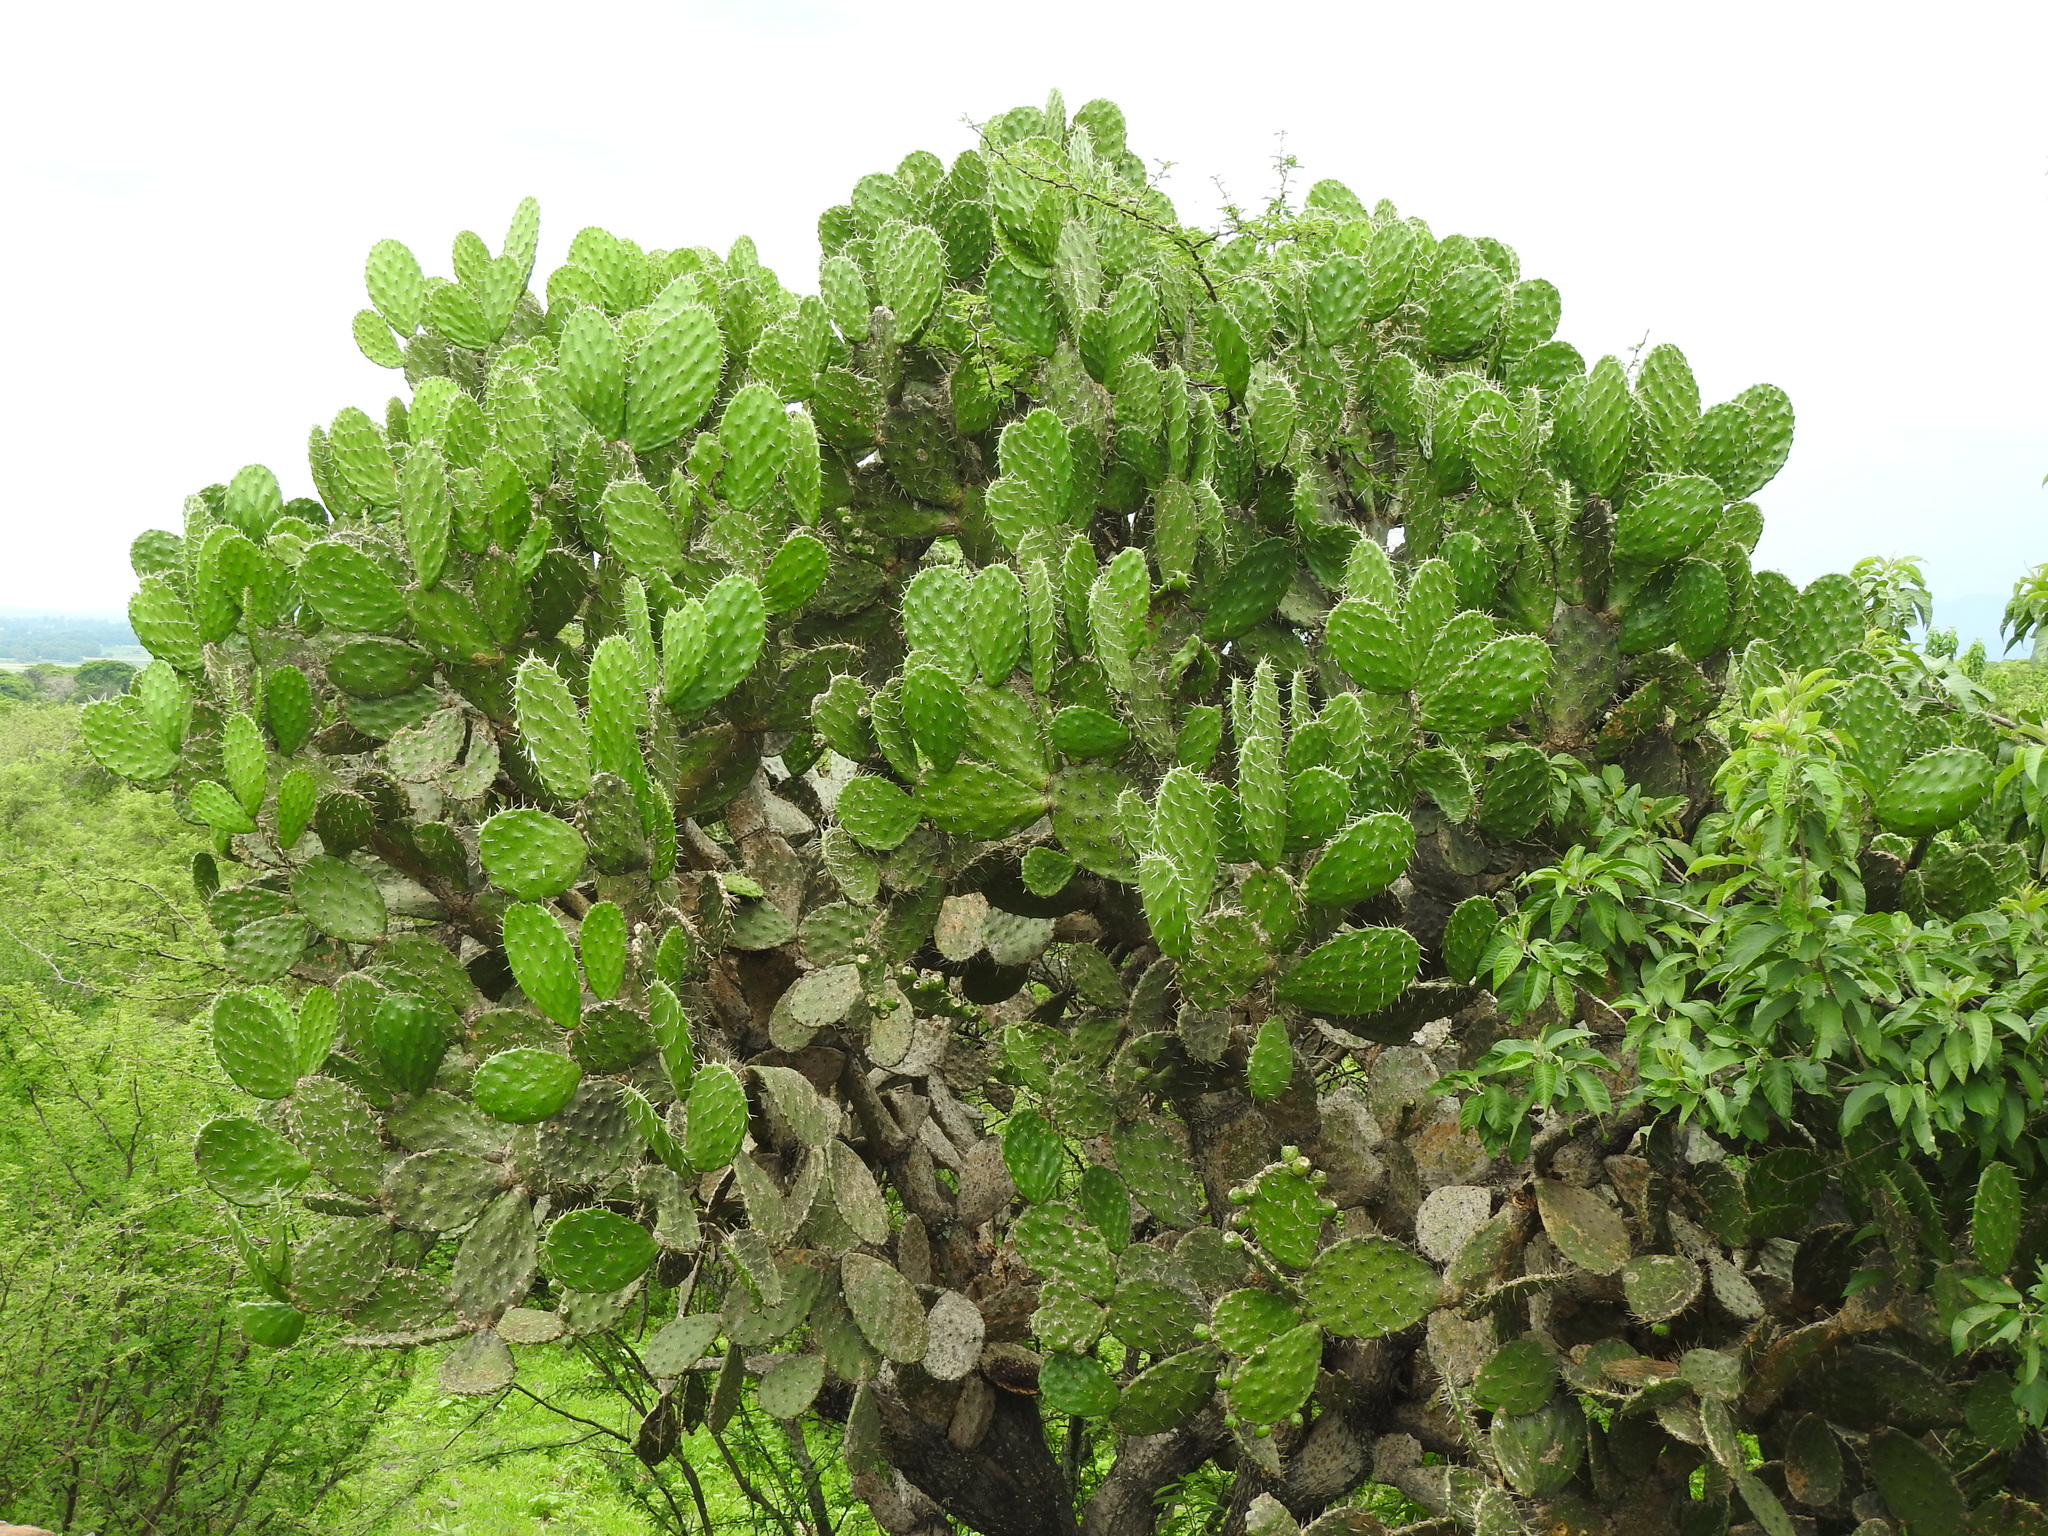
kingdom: Plantae
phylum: Tracheophyta
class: Magnoliopsida
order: Caryophyllales
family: Cactaceae
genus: Opuntia
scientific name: Opuntia tomentosa
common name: Woollyjoint pricklypear
